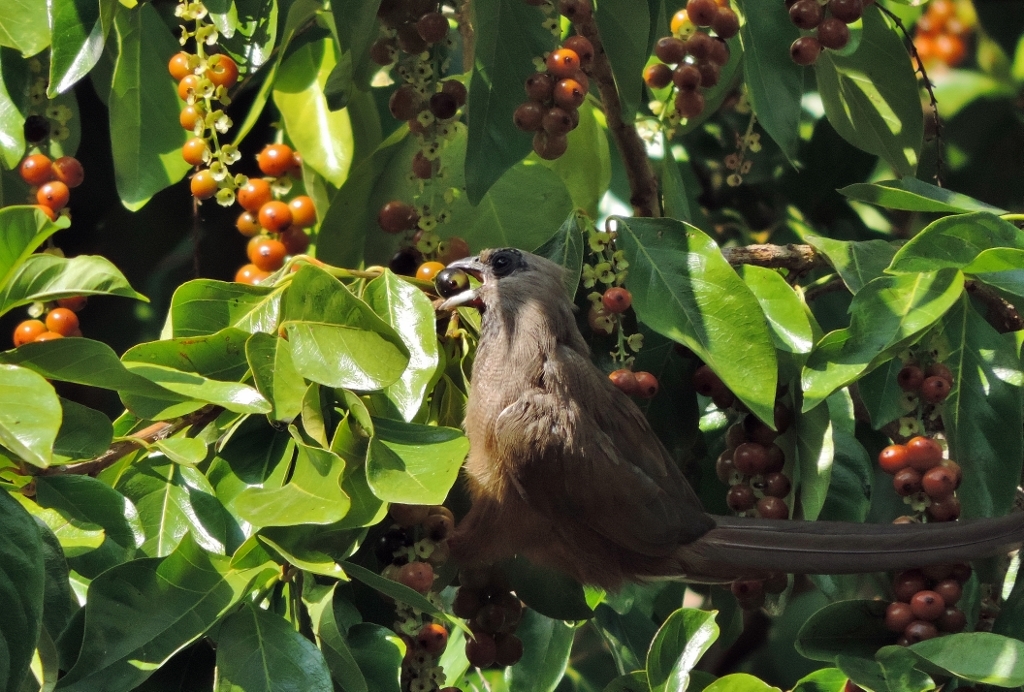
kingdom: Animalia
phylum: Chordata
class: Aves
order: Coliiformes
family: Coliidae
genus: Colius
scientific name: Colius striatus
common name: Speckled mousebird
